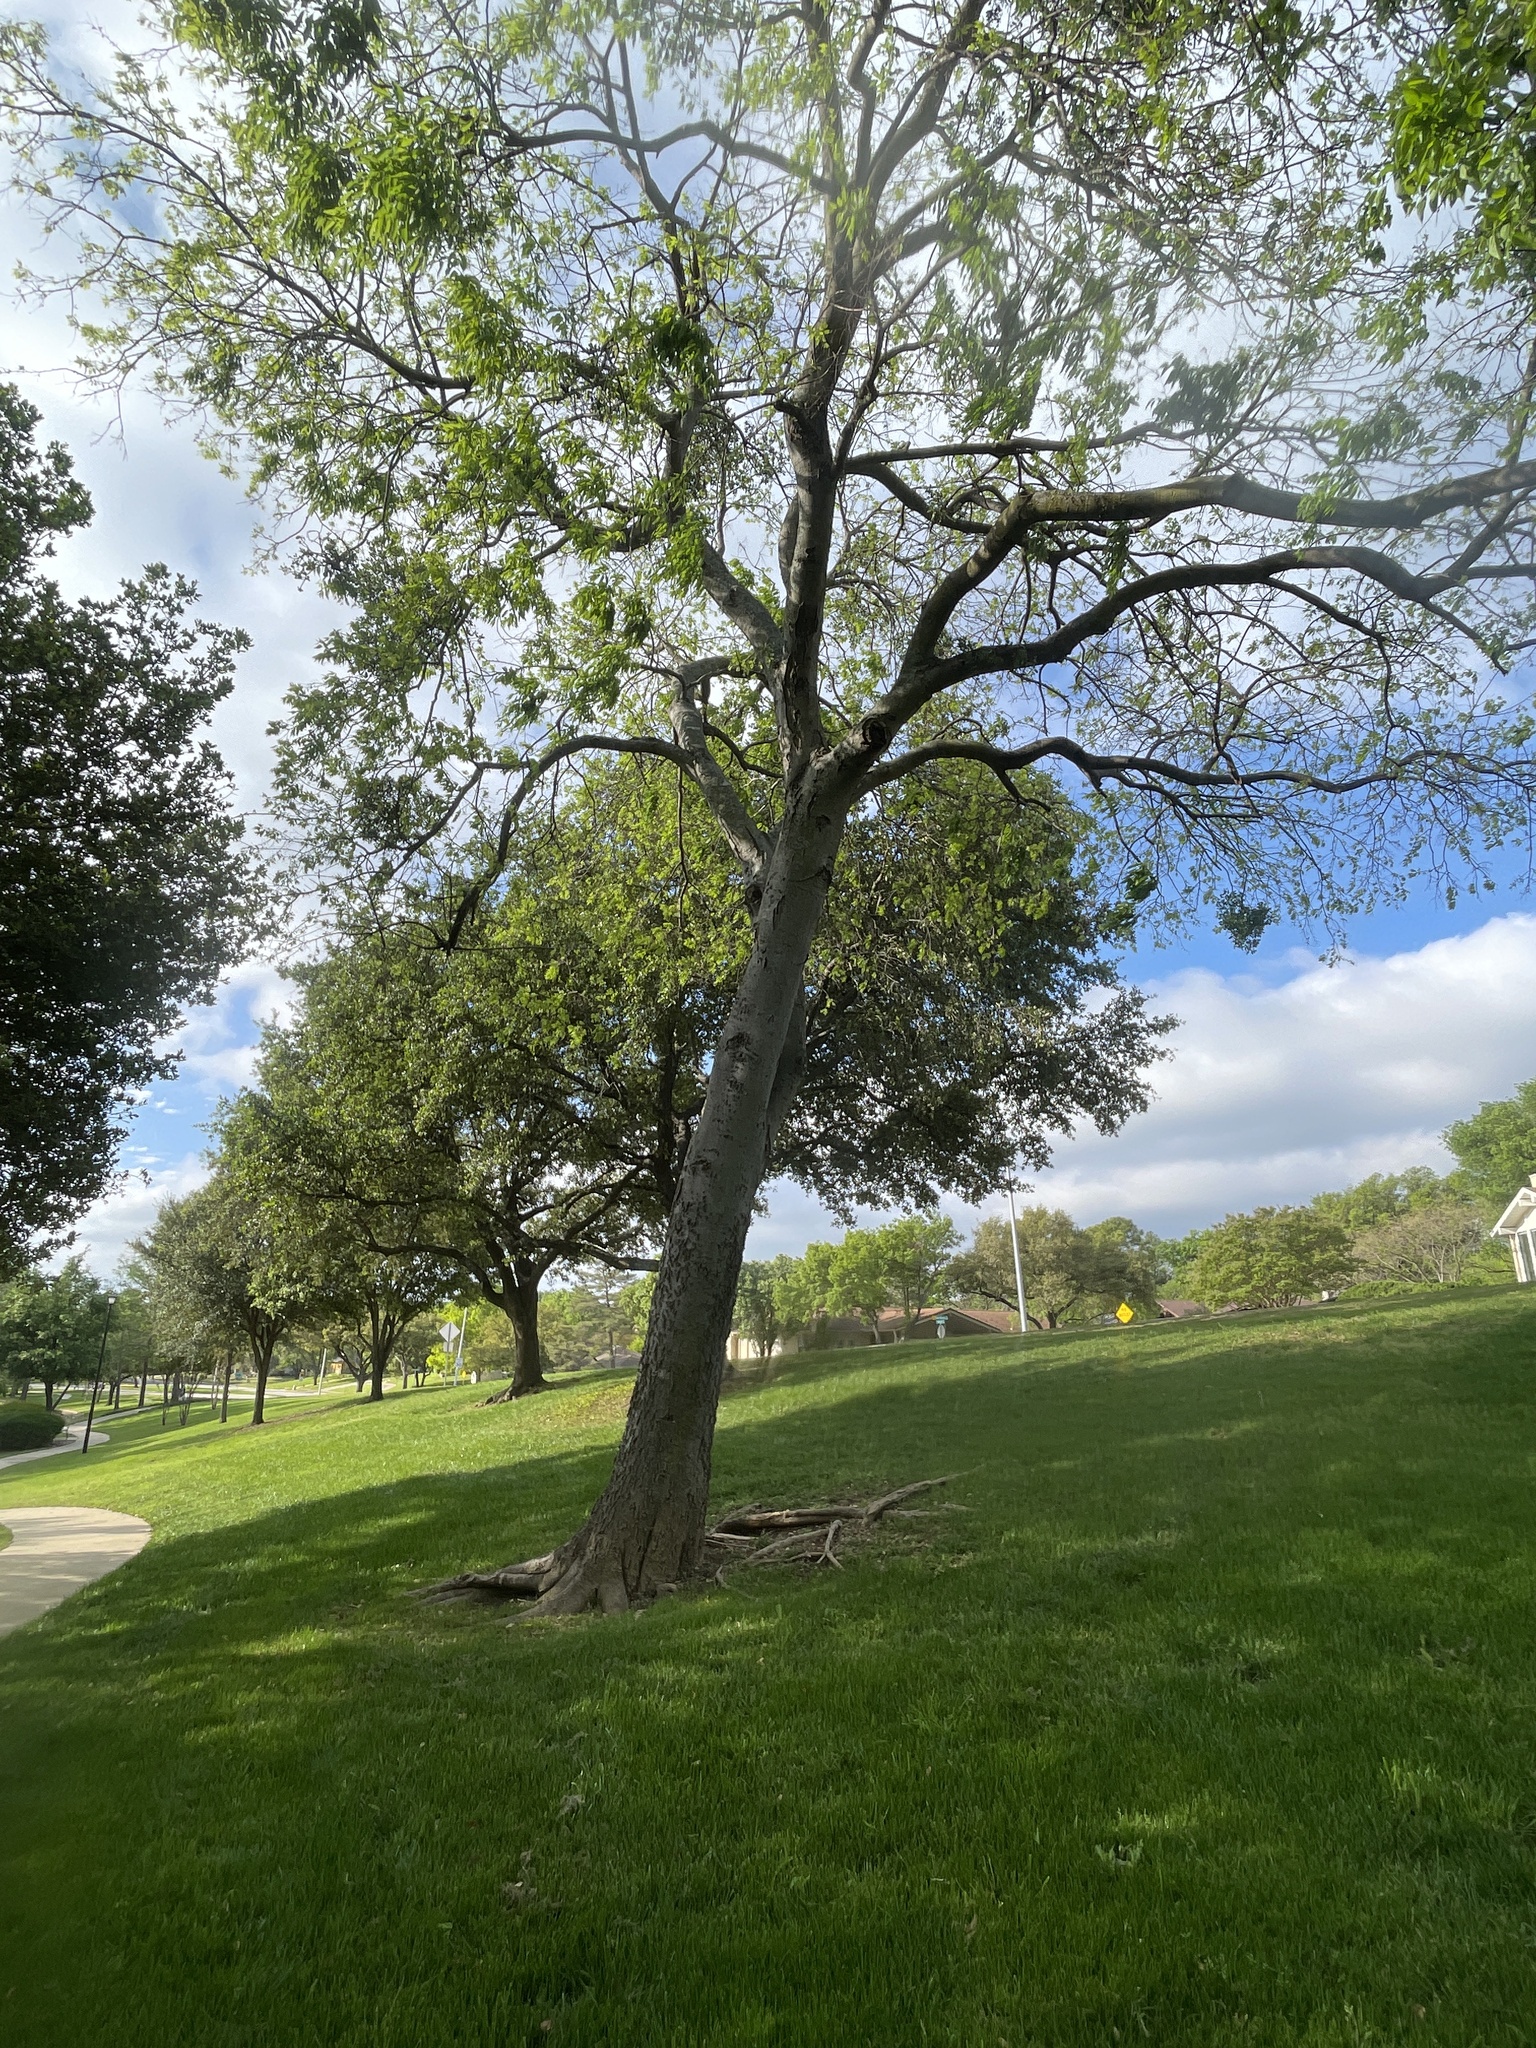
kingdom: Plantae
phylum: Tracheophyta
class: Magnoliopsida
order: Rosales
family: Cannabaceae
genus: Celtis
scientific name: Celtis laevigata
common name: Sugarberry
